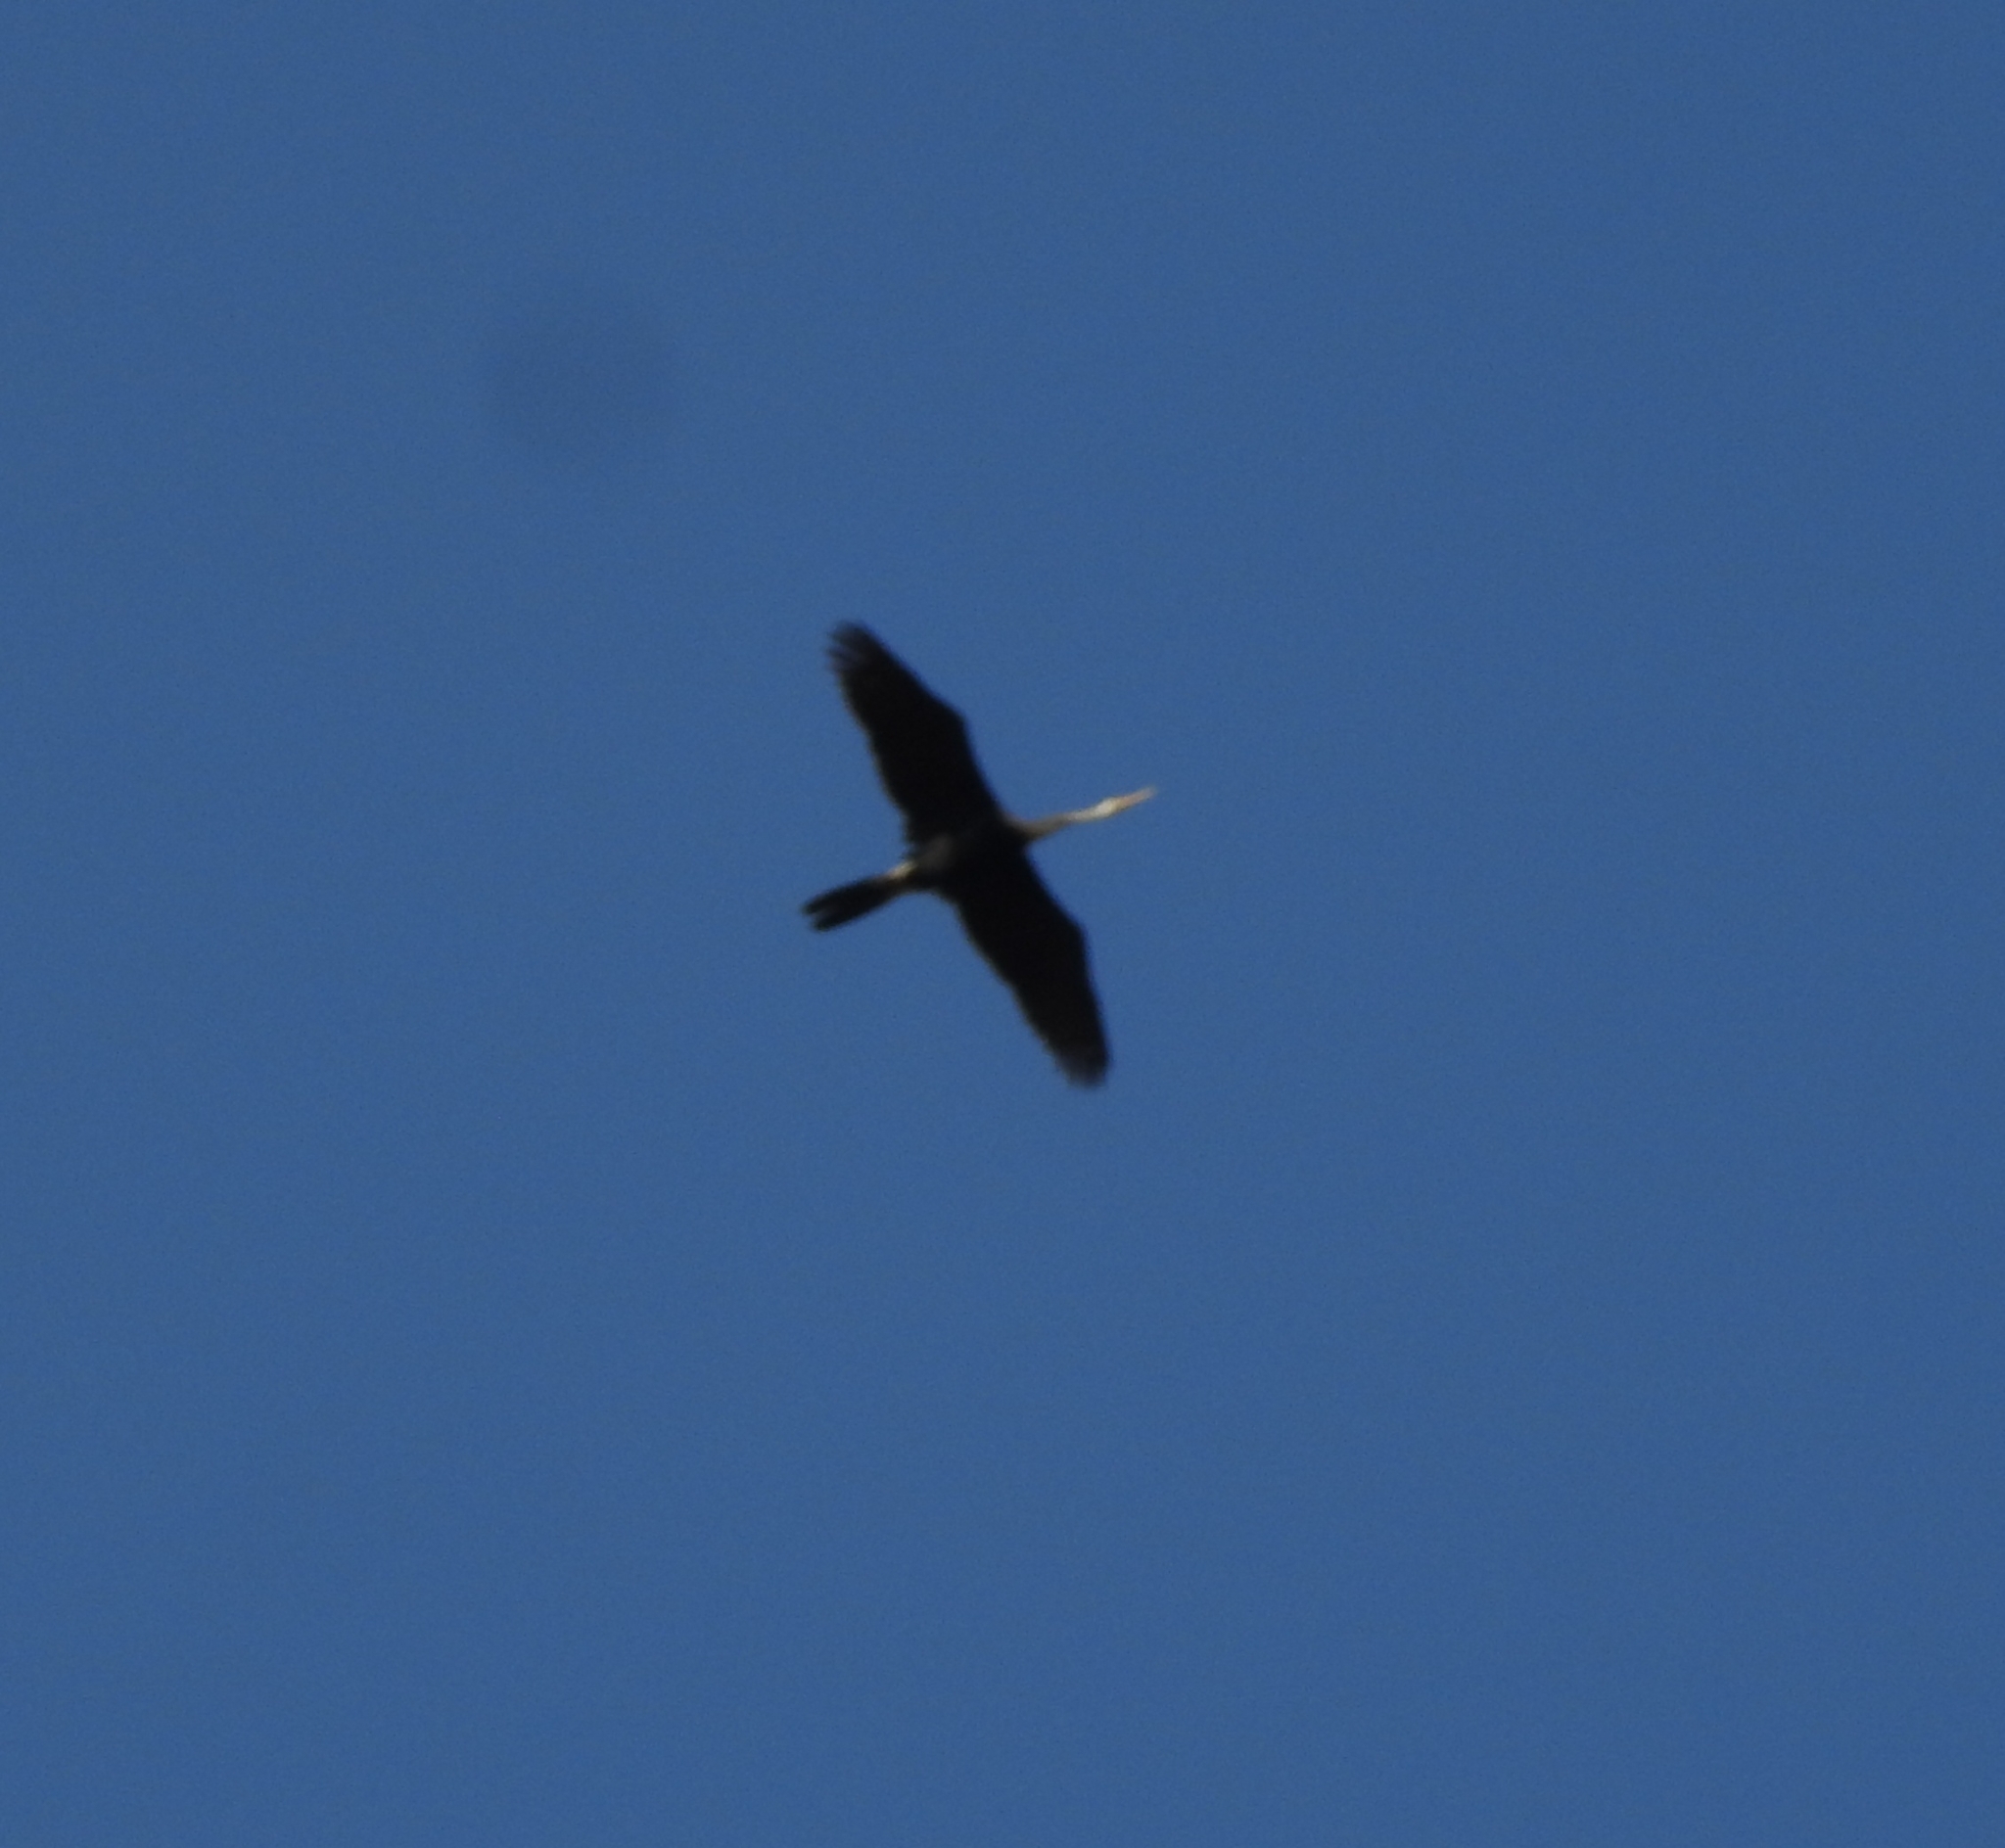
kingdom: Animalia
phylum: Chordata
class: Aves
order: Suliformes
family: Anhingidae
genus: Anhinga
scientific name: Anhinga melanogaster
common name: Oriental darter
